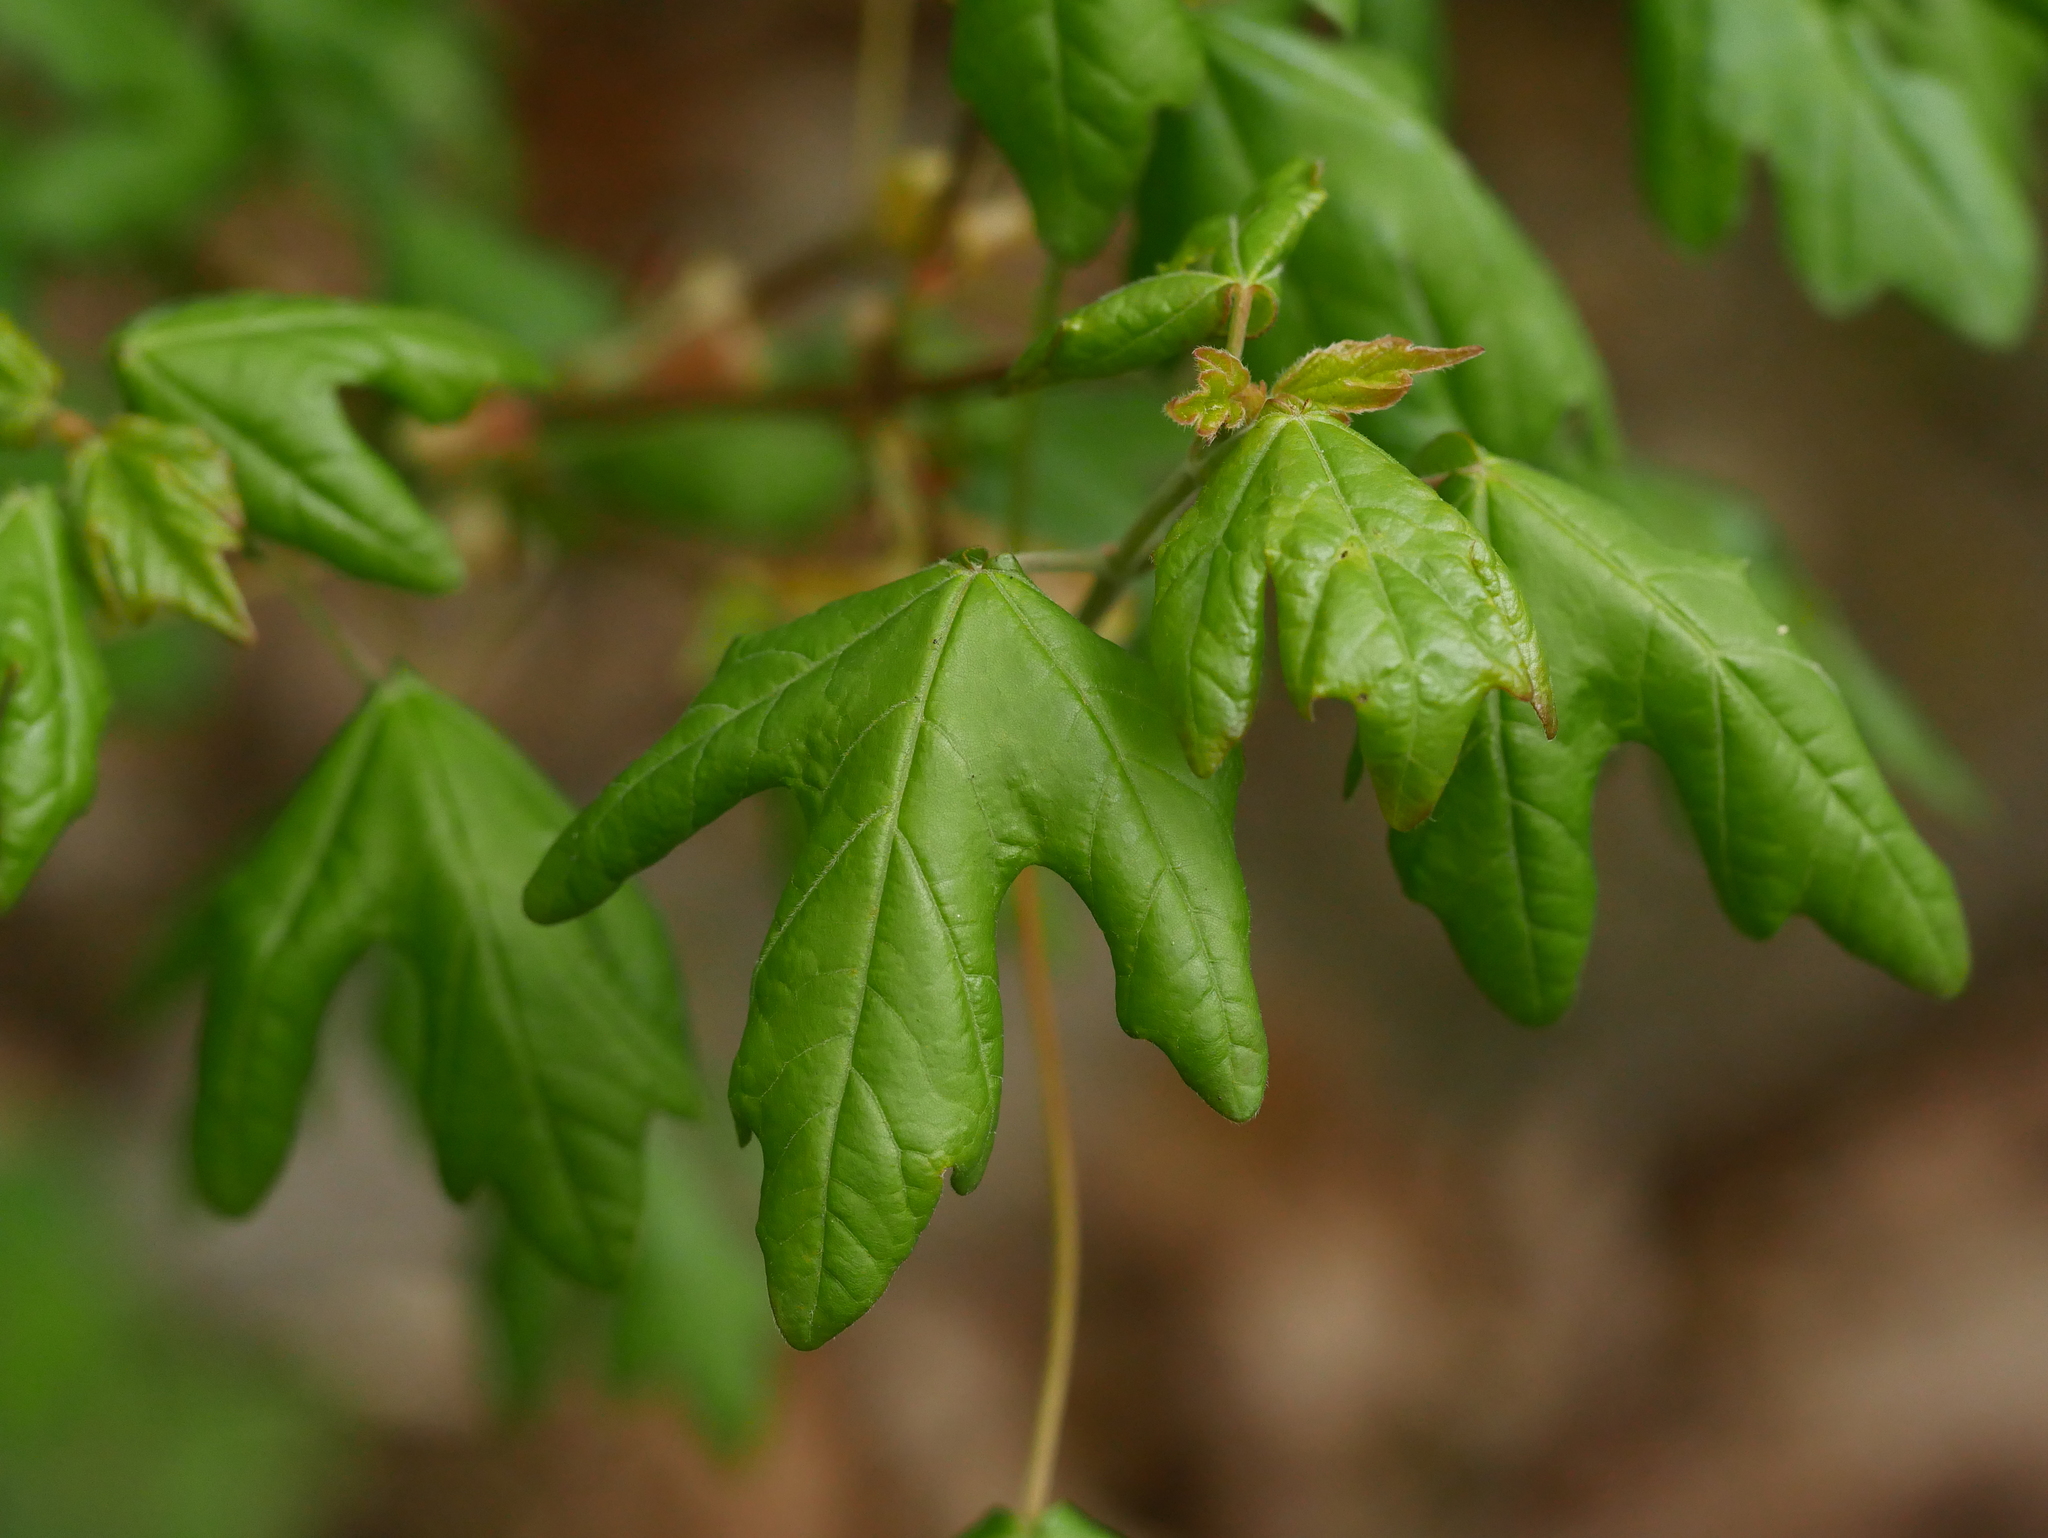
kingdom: Plantae
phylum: Tracheophyta
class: Magnoliopsida
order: Sapindales
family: Sapindaceae
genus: Acer
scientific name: Acer campestre
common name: Field maple
